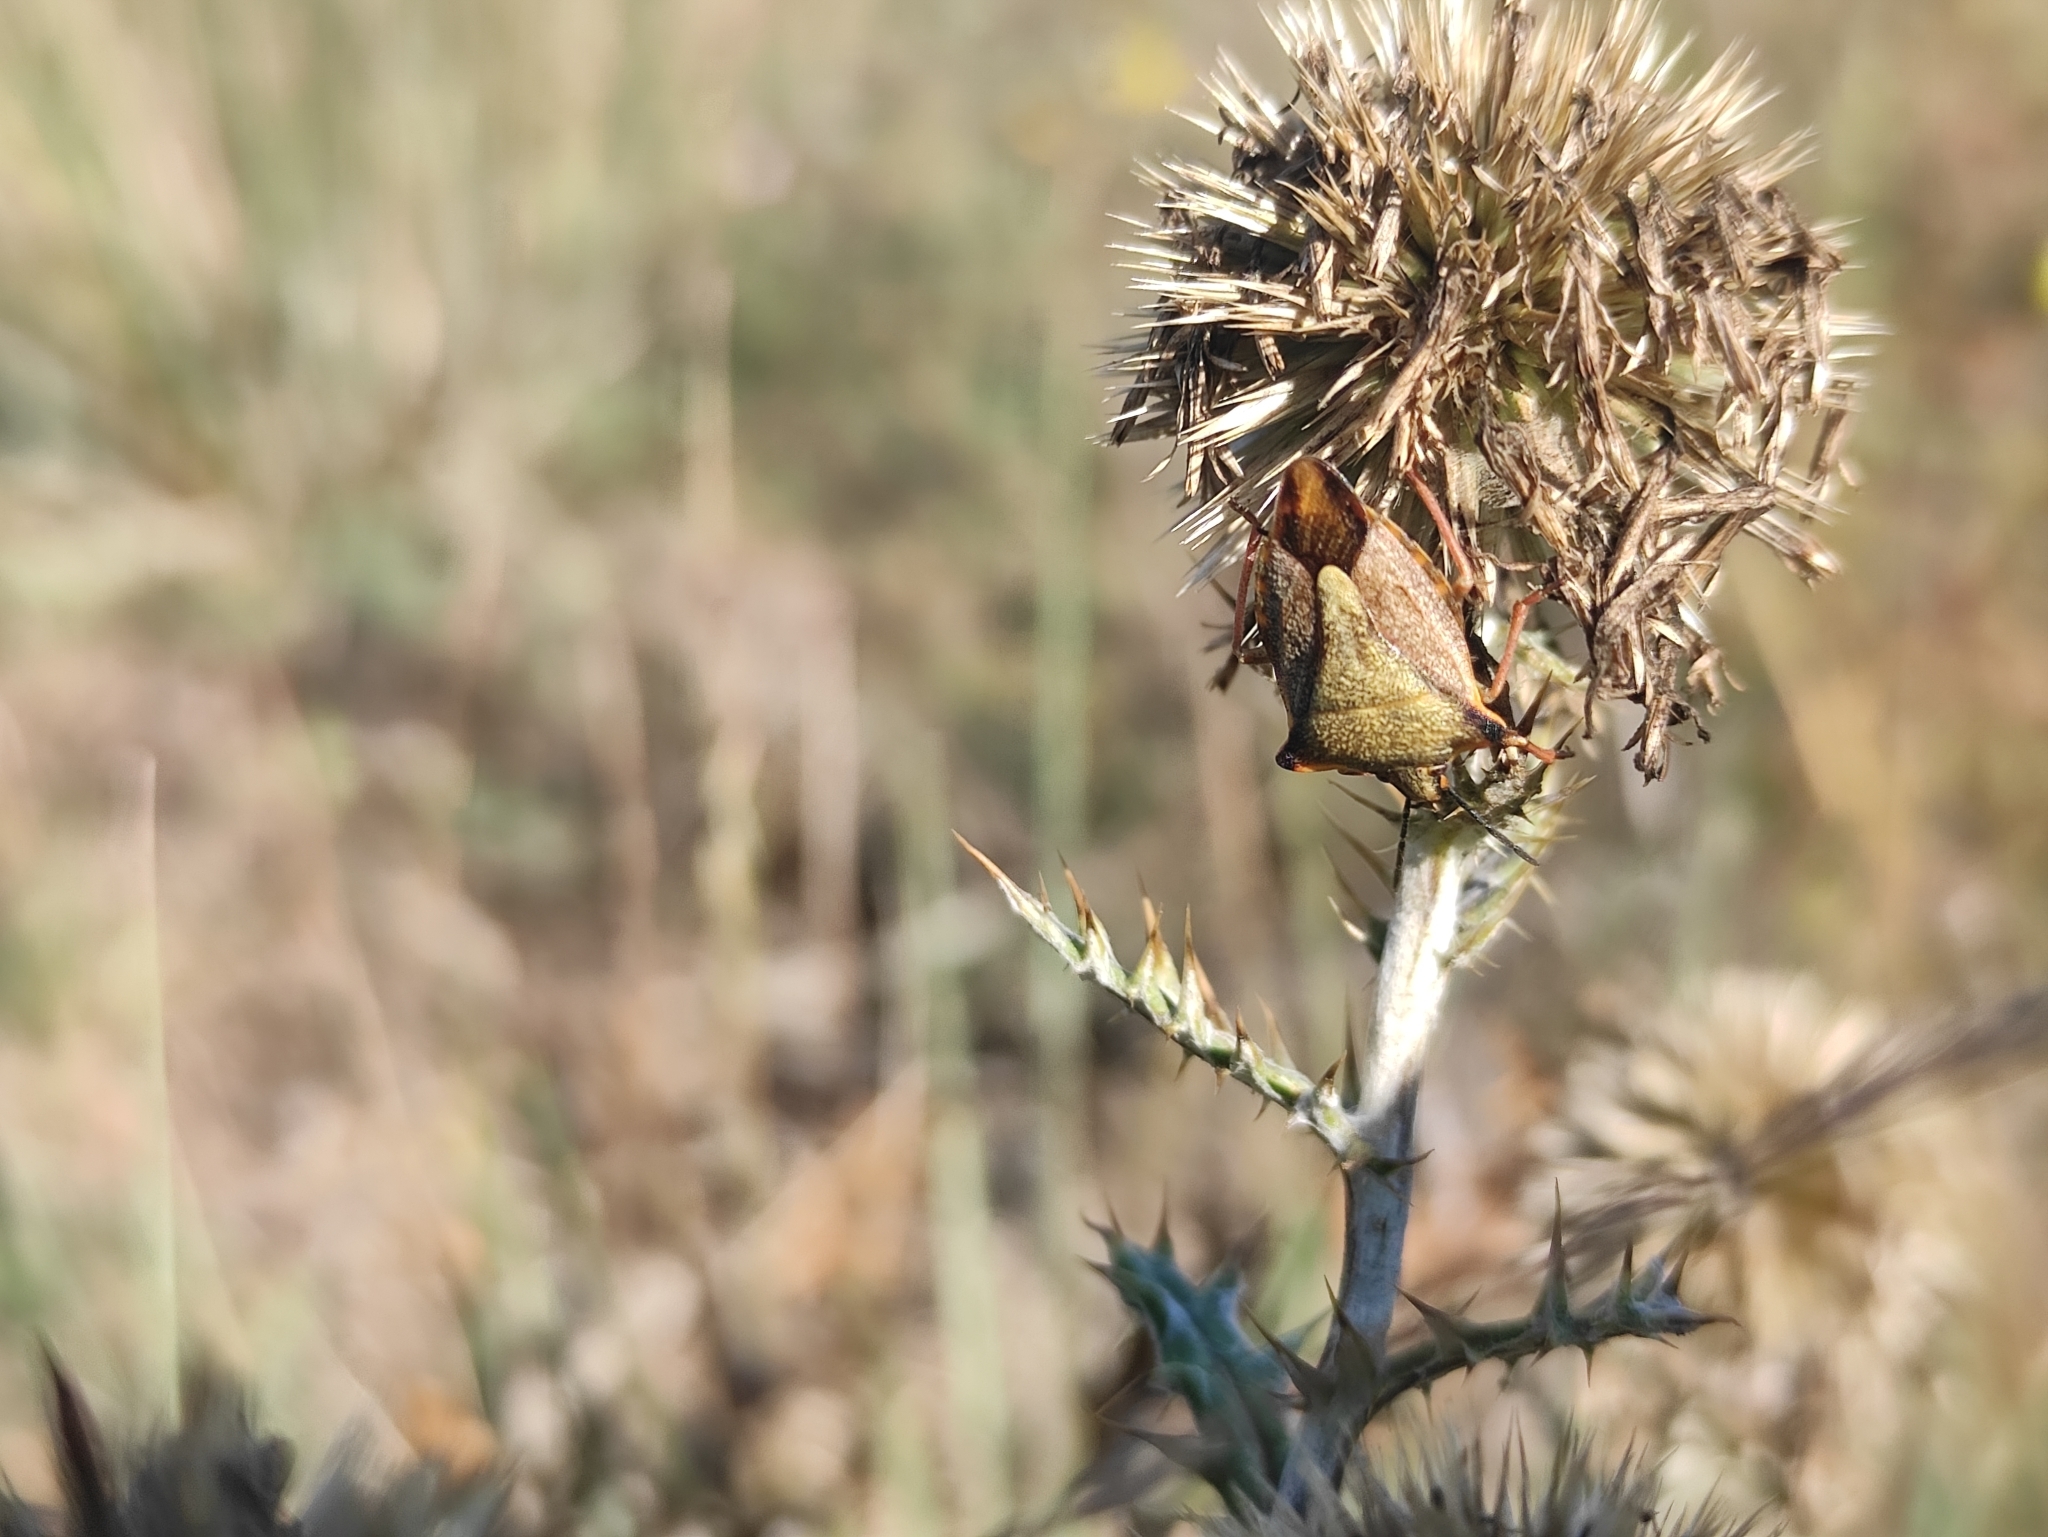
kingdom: Animalia
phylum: Arthropoda
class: Insecta
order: Hemiptera
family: Pentatomidae
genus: Carpocoris
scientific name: Carpocoris mediterraneus
